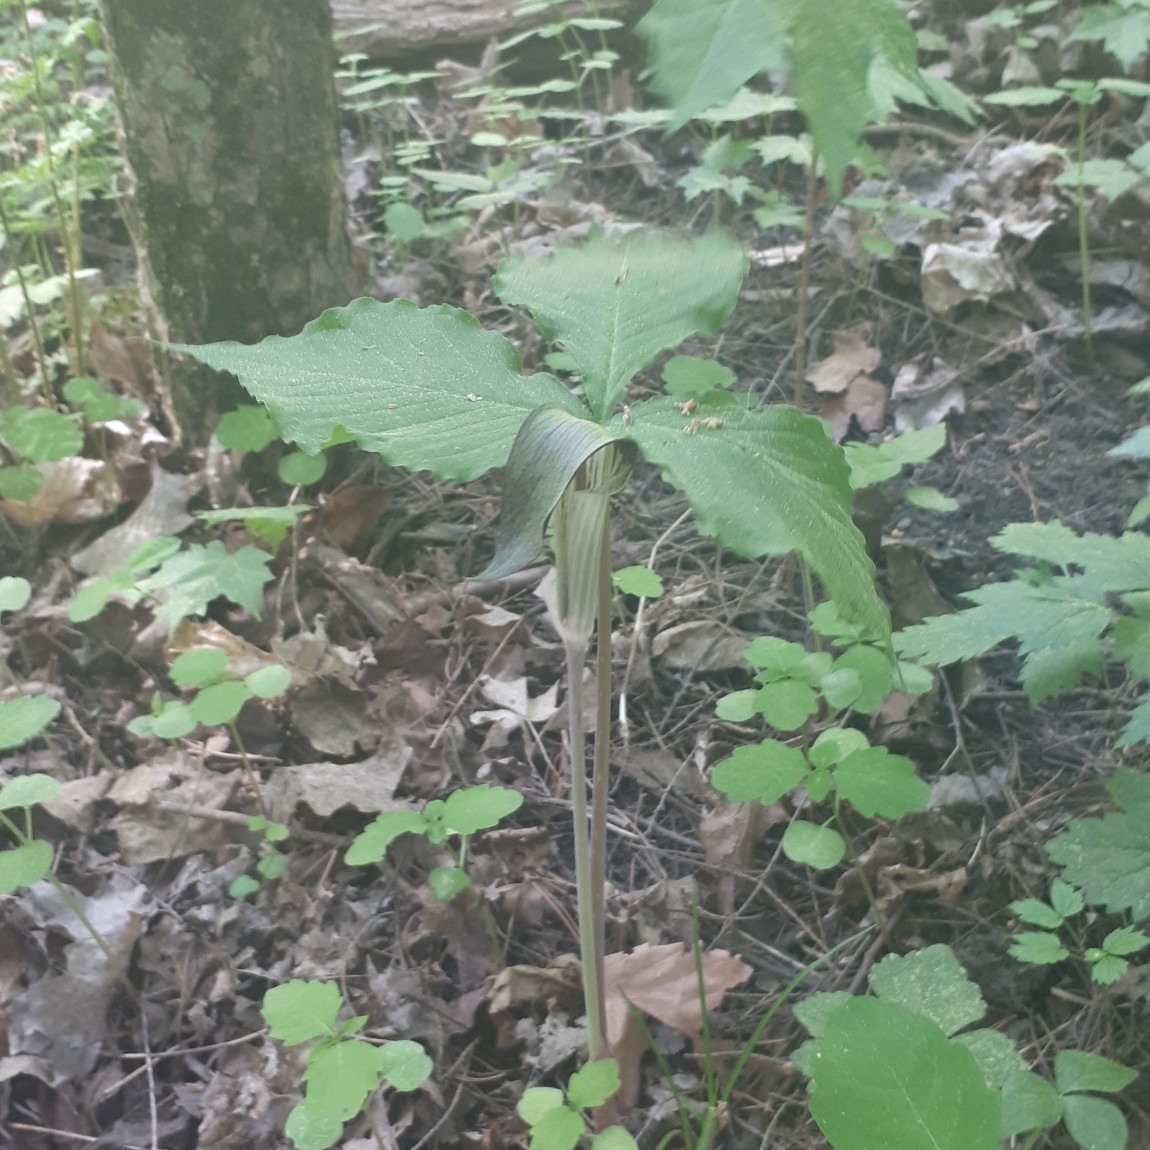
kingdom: Plantae
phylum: Tracheophyta
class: Liliopsida
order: Alismatales
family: Araceae
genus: Arisaema
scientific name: Arisaema triphyllum
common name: Jack-in-the-pulpit
